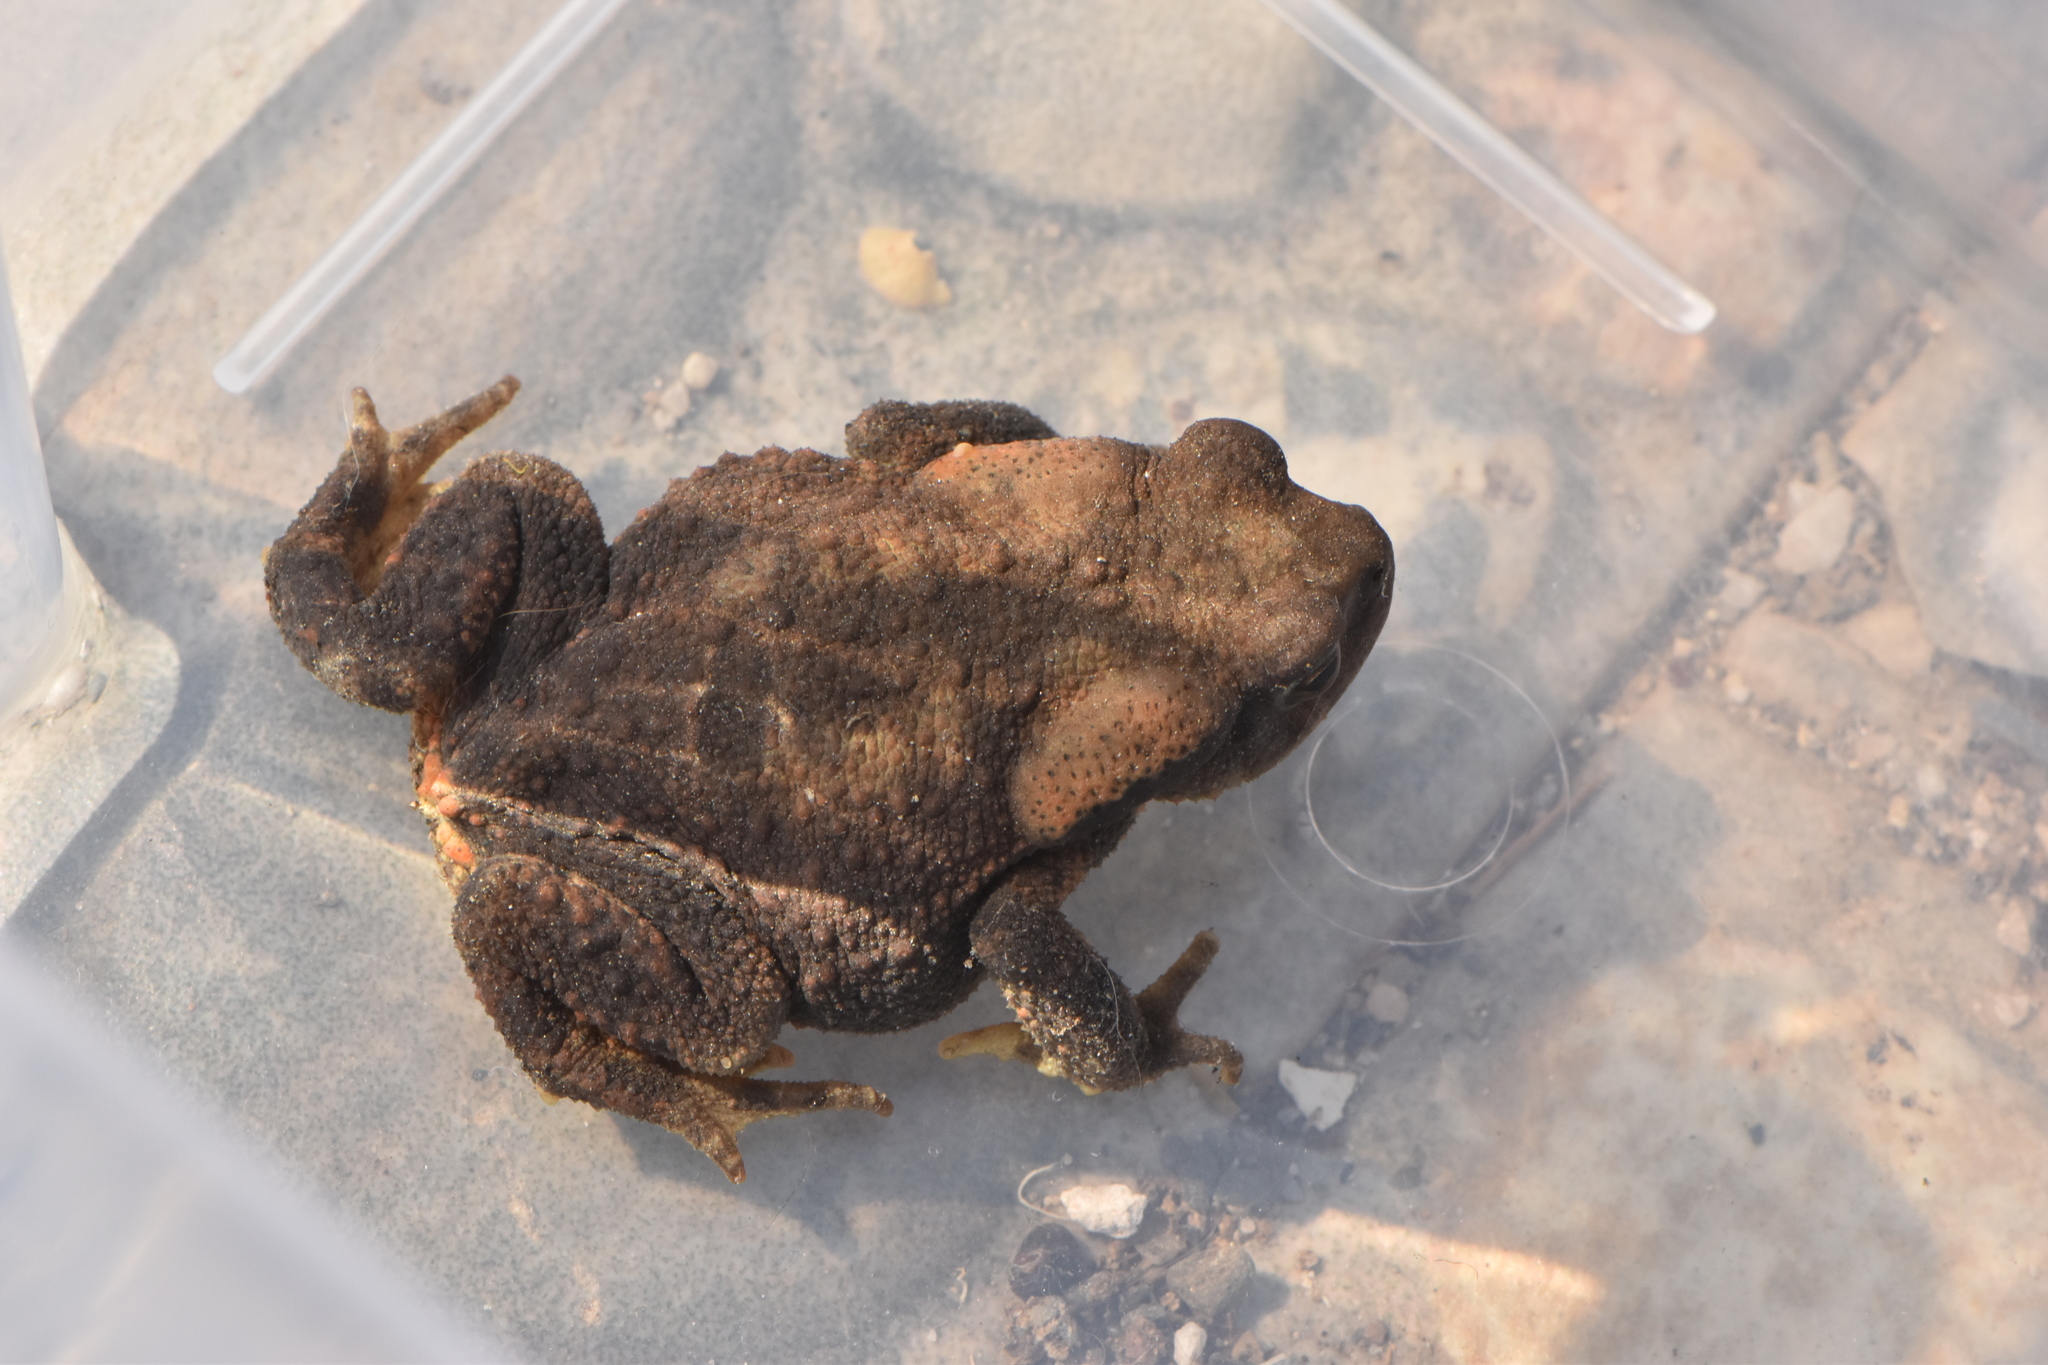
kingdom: Animalia
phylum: Chordata
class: Amphibia
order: Anura
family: Bufonidae
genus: Bufo
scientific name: Bufo spinosus
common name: Western common toad
